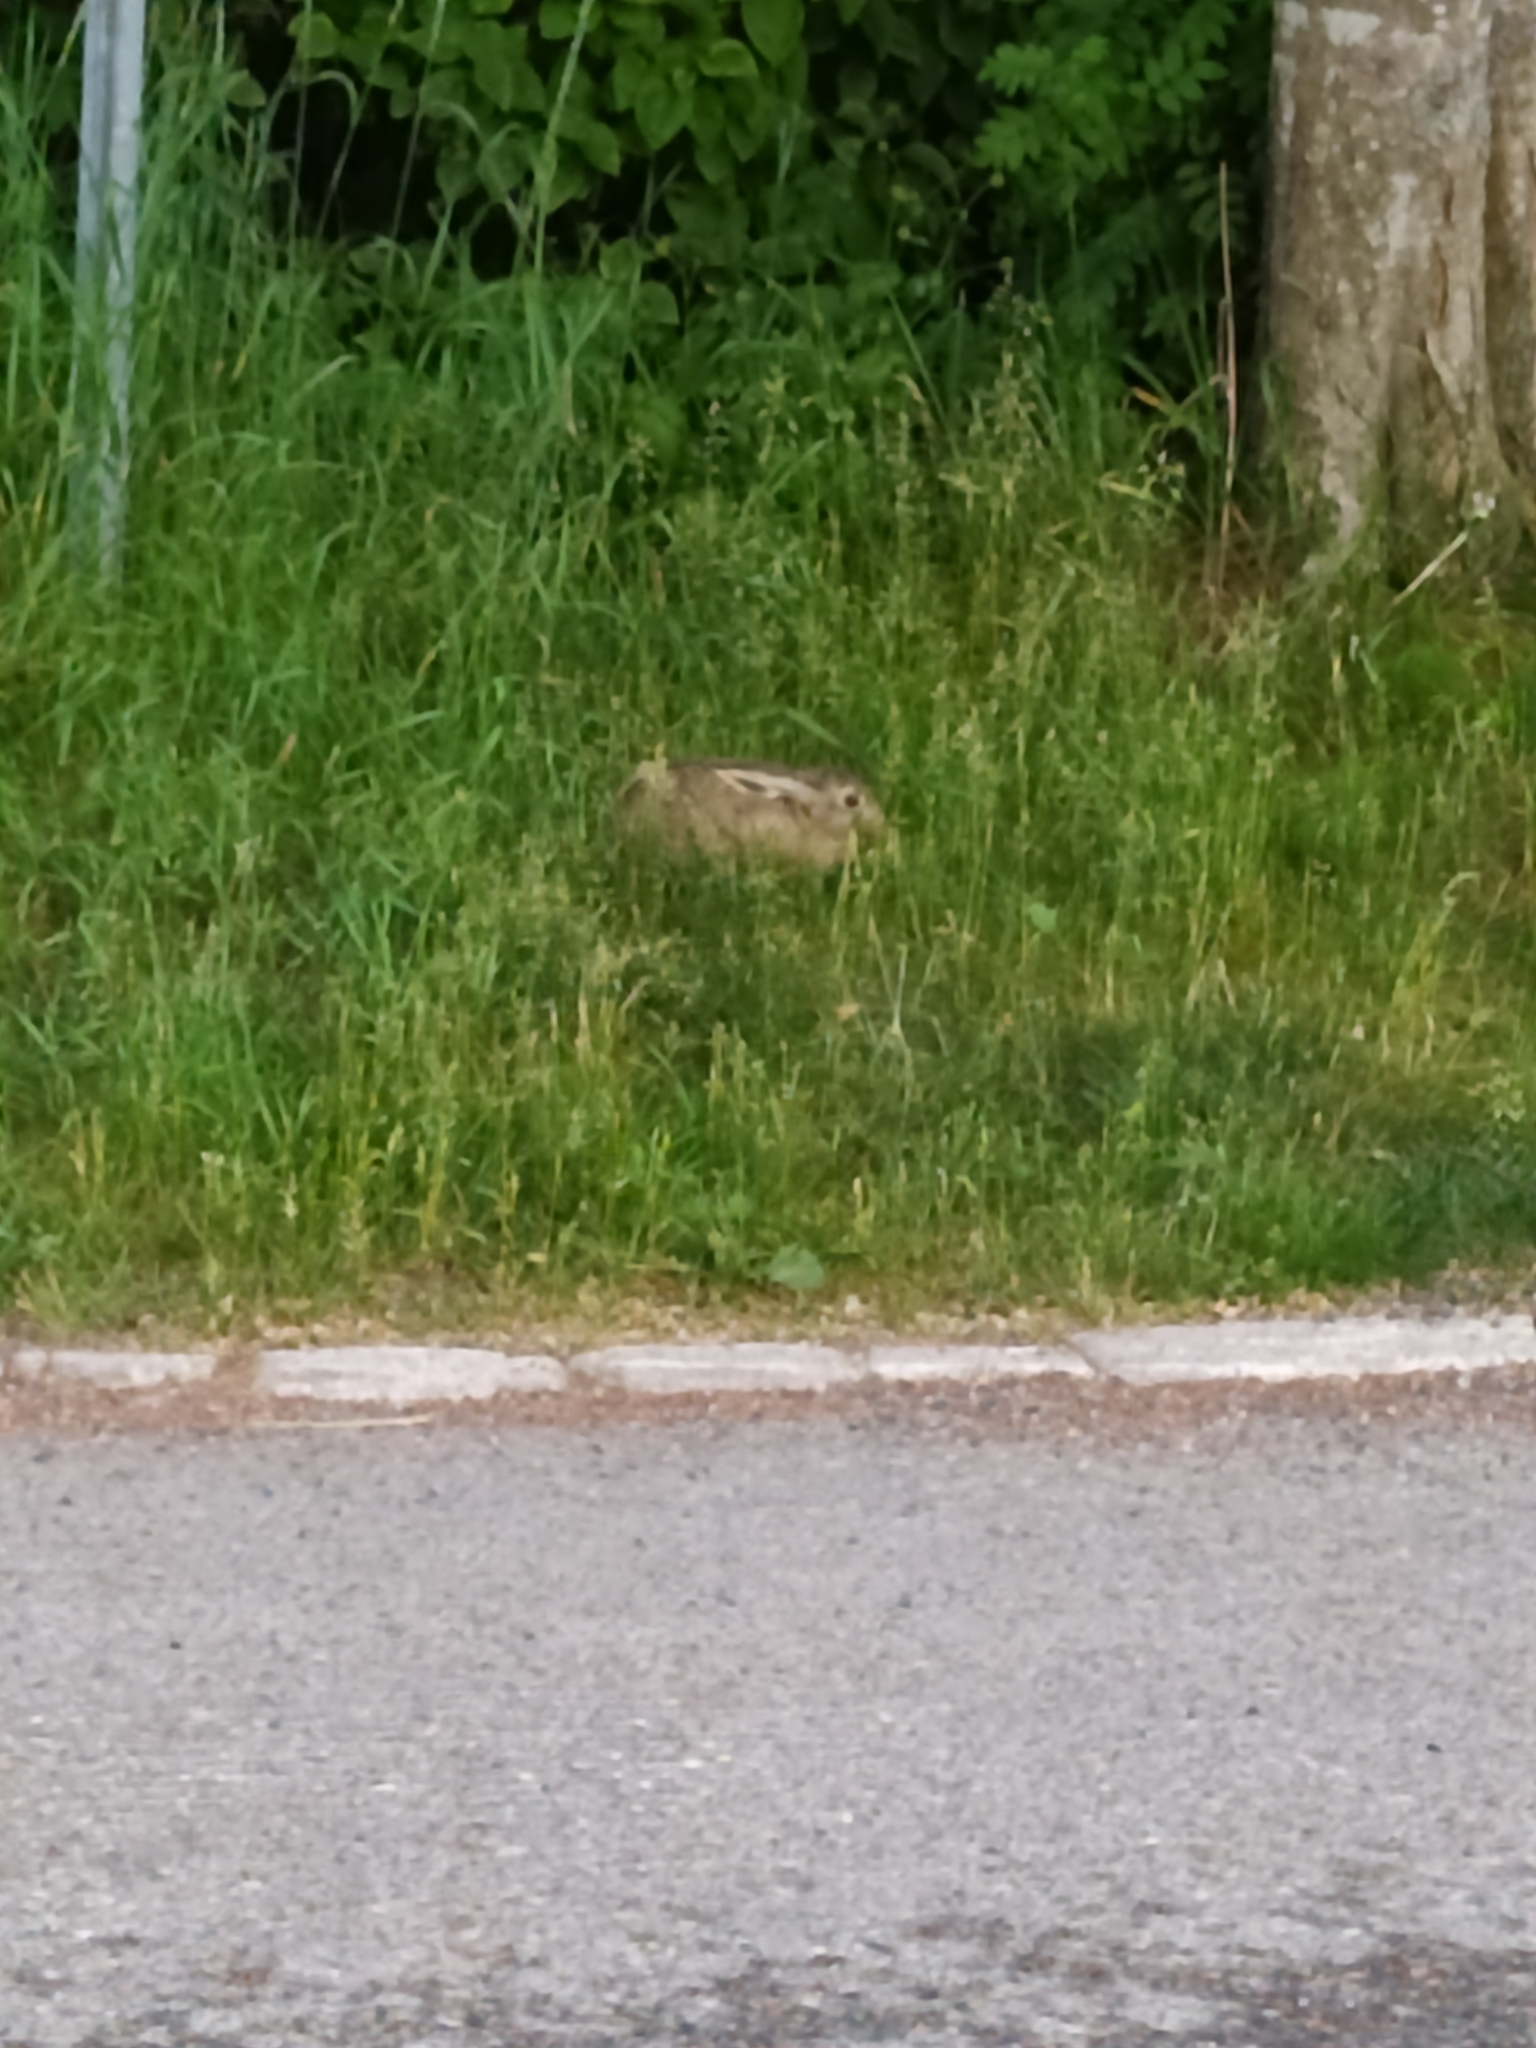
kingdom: Animalia
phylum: Chordata
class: Mammalia
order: Lagomorpha
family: Leporidae
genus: Lepus
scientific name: Lepus europaeus
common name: European hare
